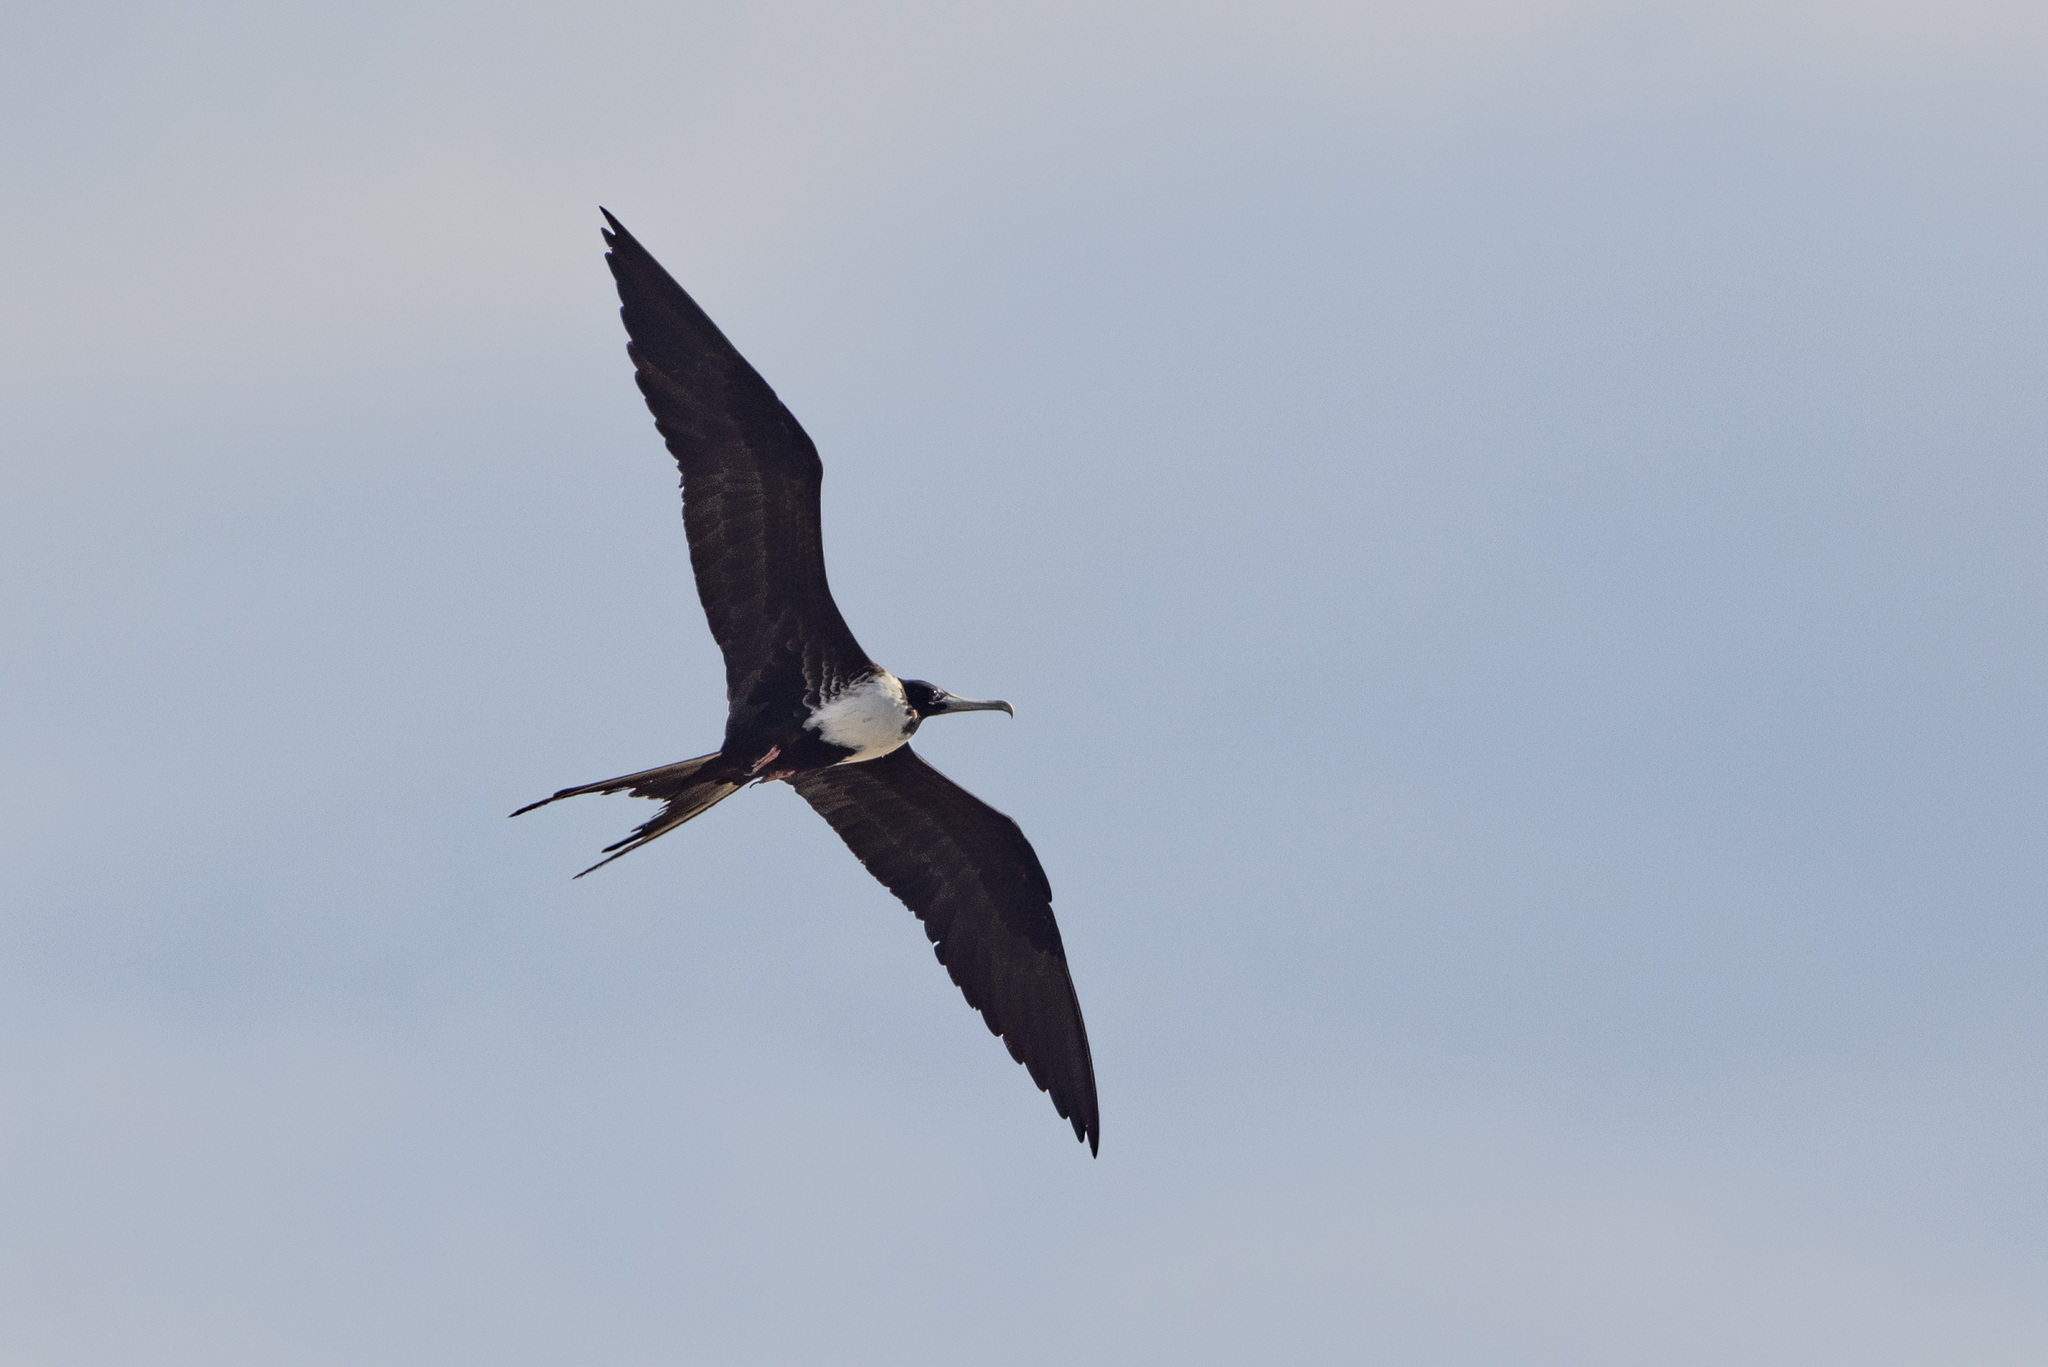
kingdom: Animalia
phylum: Chordata
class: Aves
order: Suliformes
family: Fregatidae
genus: Fregata
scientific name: Fregata magnificens
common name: Magnificent frigatebird
